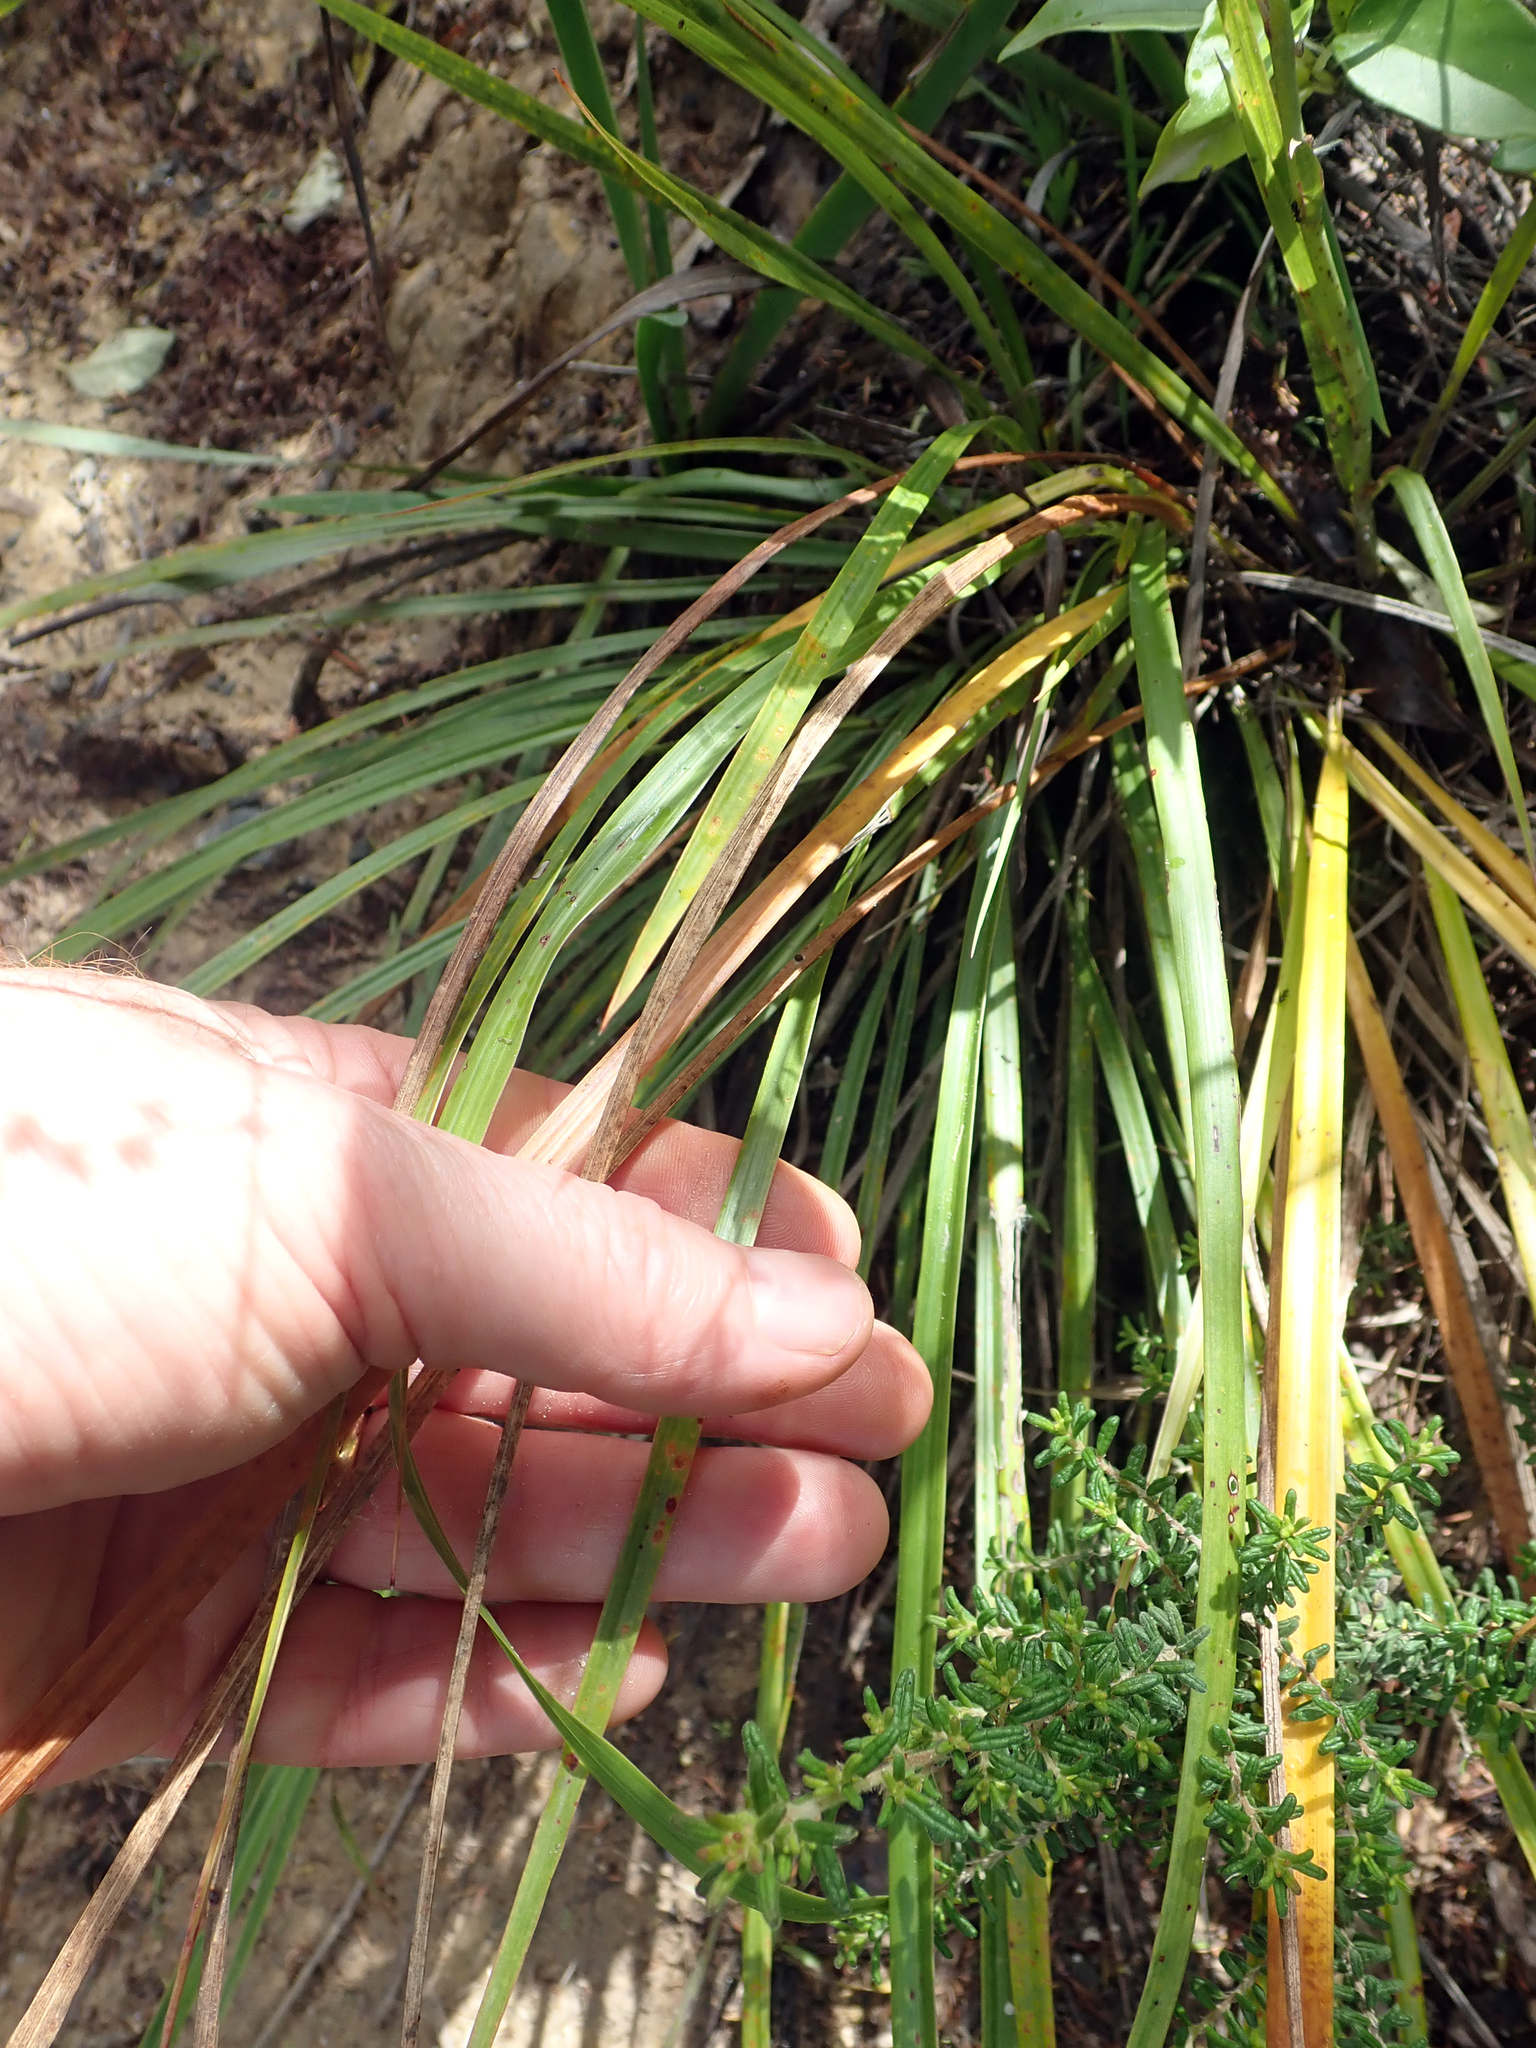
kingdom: Plantae
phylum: Tracheophyta
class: Liliopsida
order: Asparagales
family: Asparagaceae
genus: Cordyline
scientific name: Cordyline pumilio
